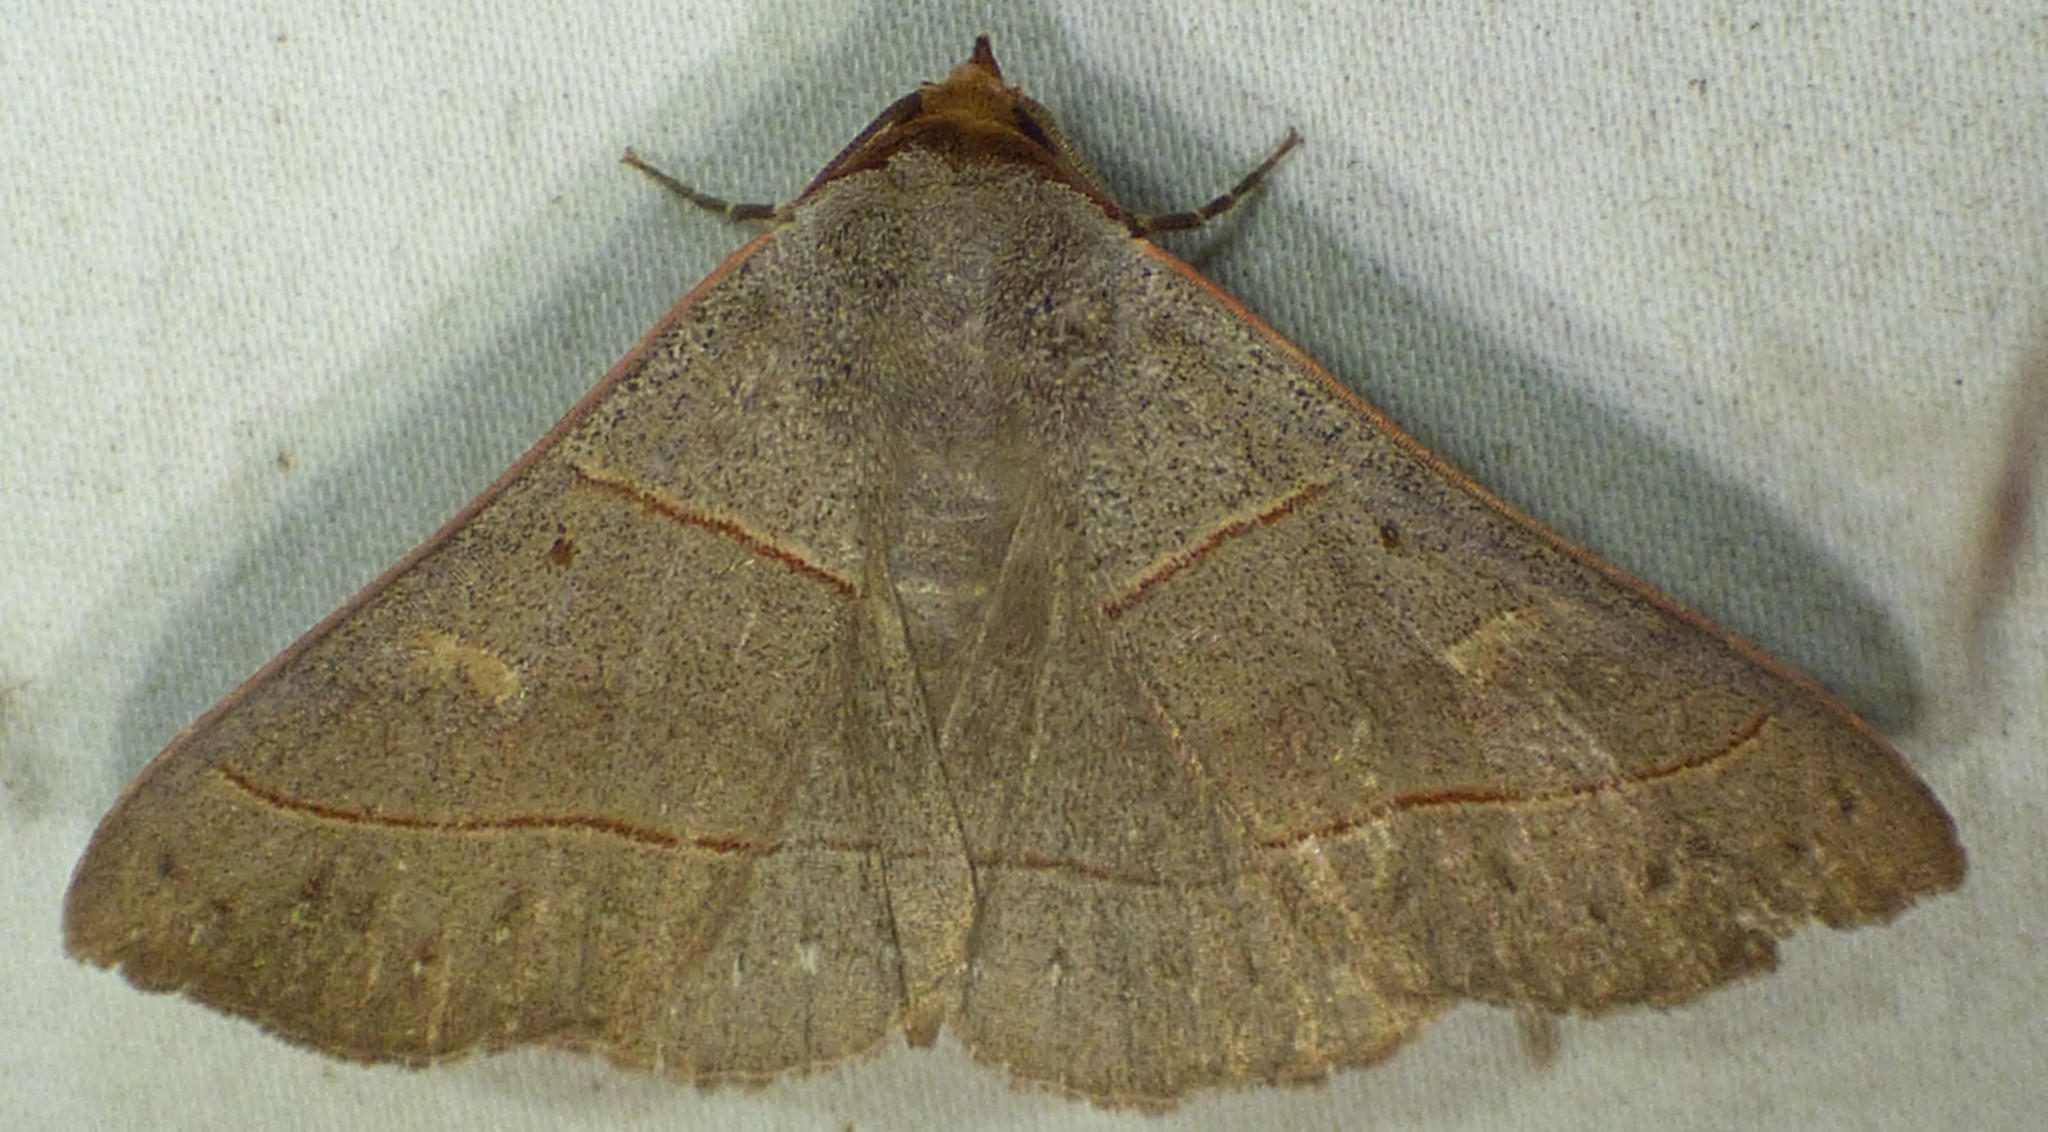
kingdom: Animalia
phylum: Arthropoda
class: Insecta
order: Lepidoptera
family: Erebidae
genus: Panopoda
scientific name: Panopoda rufimargo
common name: Red-lined panopoda moth
